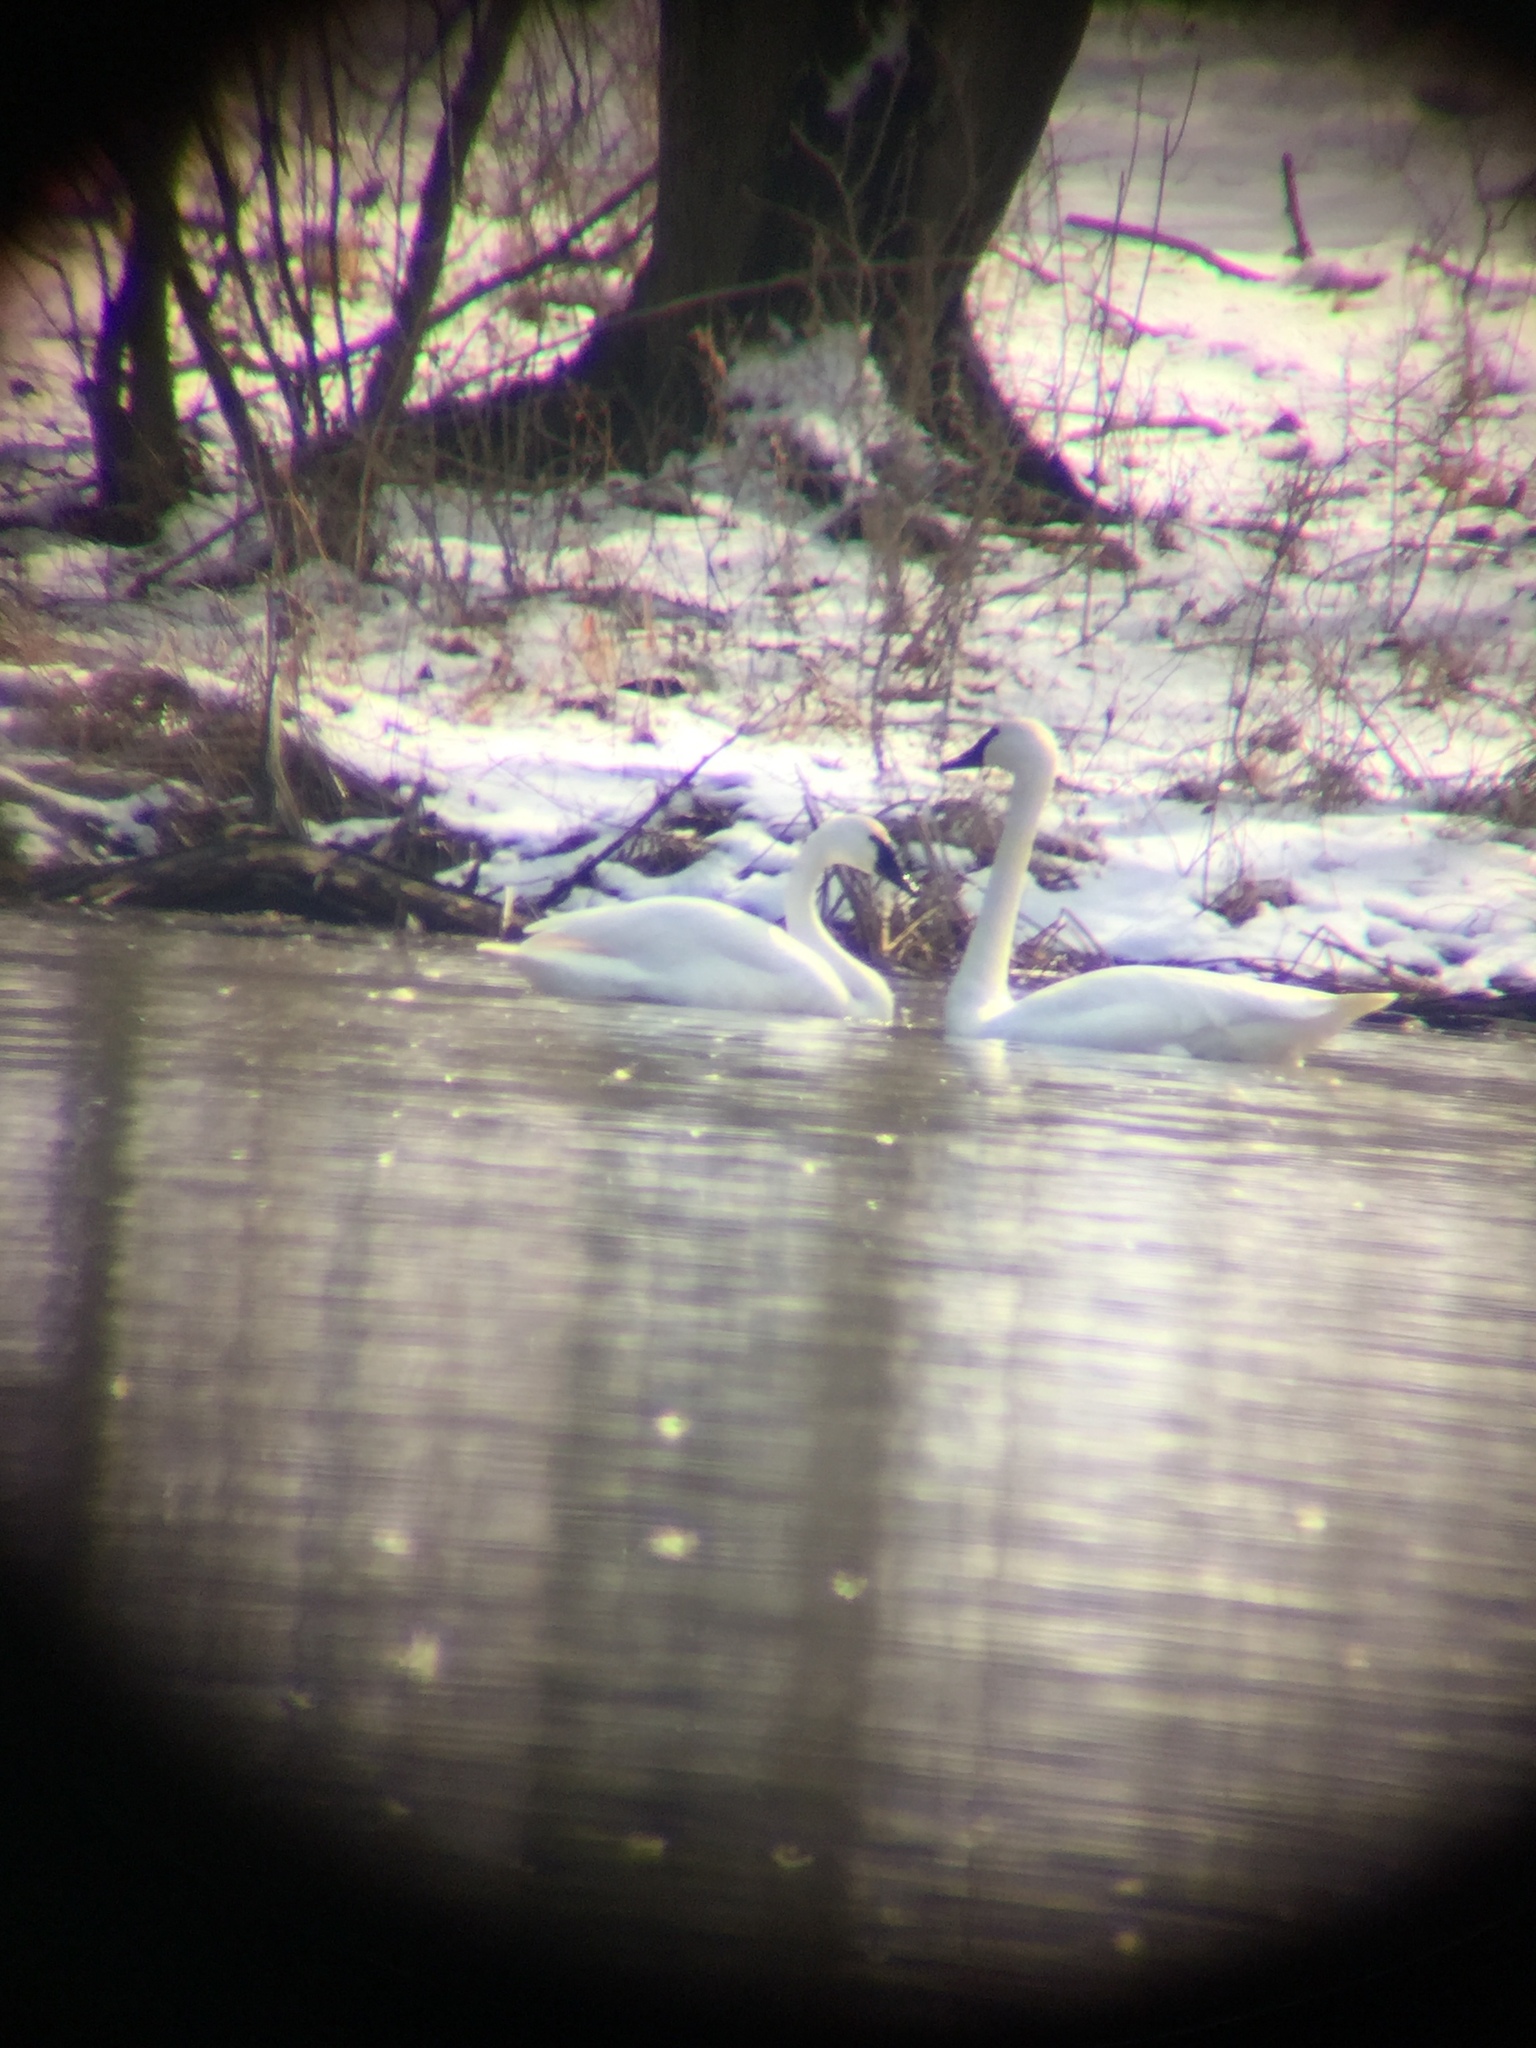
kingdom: Animalia
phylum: Chordata
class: Aves
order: Anseriformes
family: Anatidae
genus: Cygnus
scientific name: Cygnus columbianus
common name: Tundra swan
